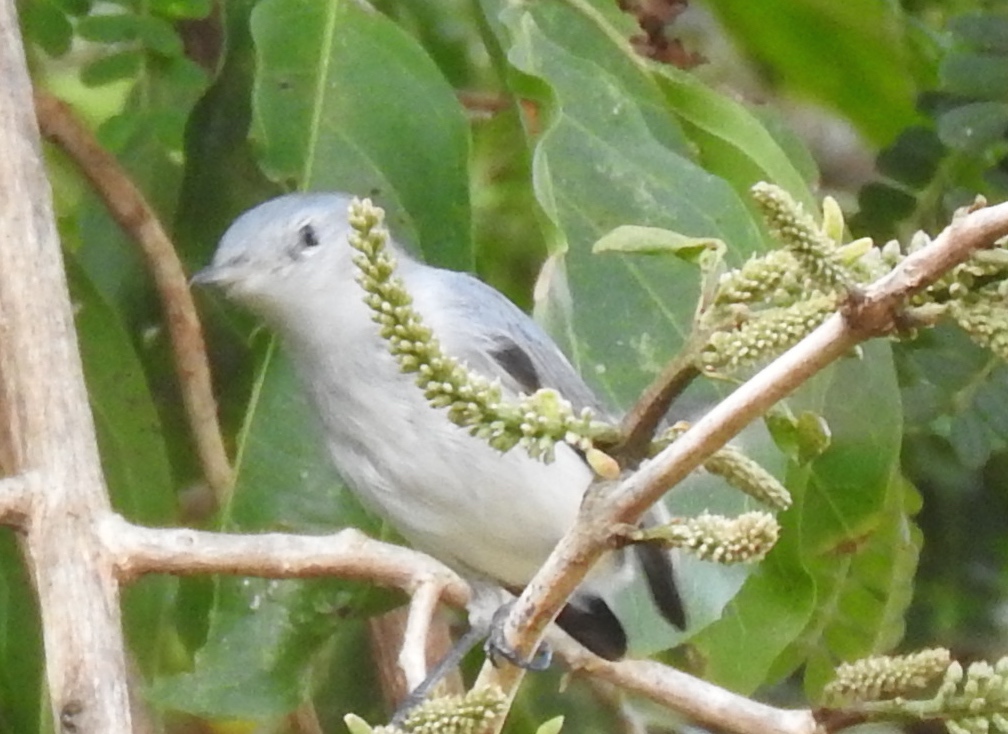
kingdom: Animalia
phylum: Chordata
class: Aves
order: Passeriformes
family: Polioptilidae
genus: Polioptila
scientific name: Polioptila caerulea
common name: Blue-gray gnatcatcher
